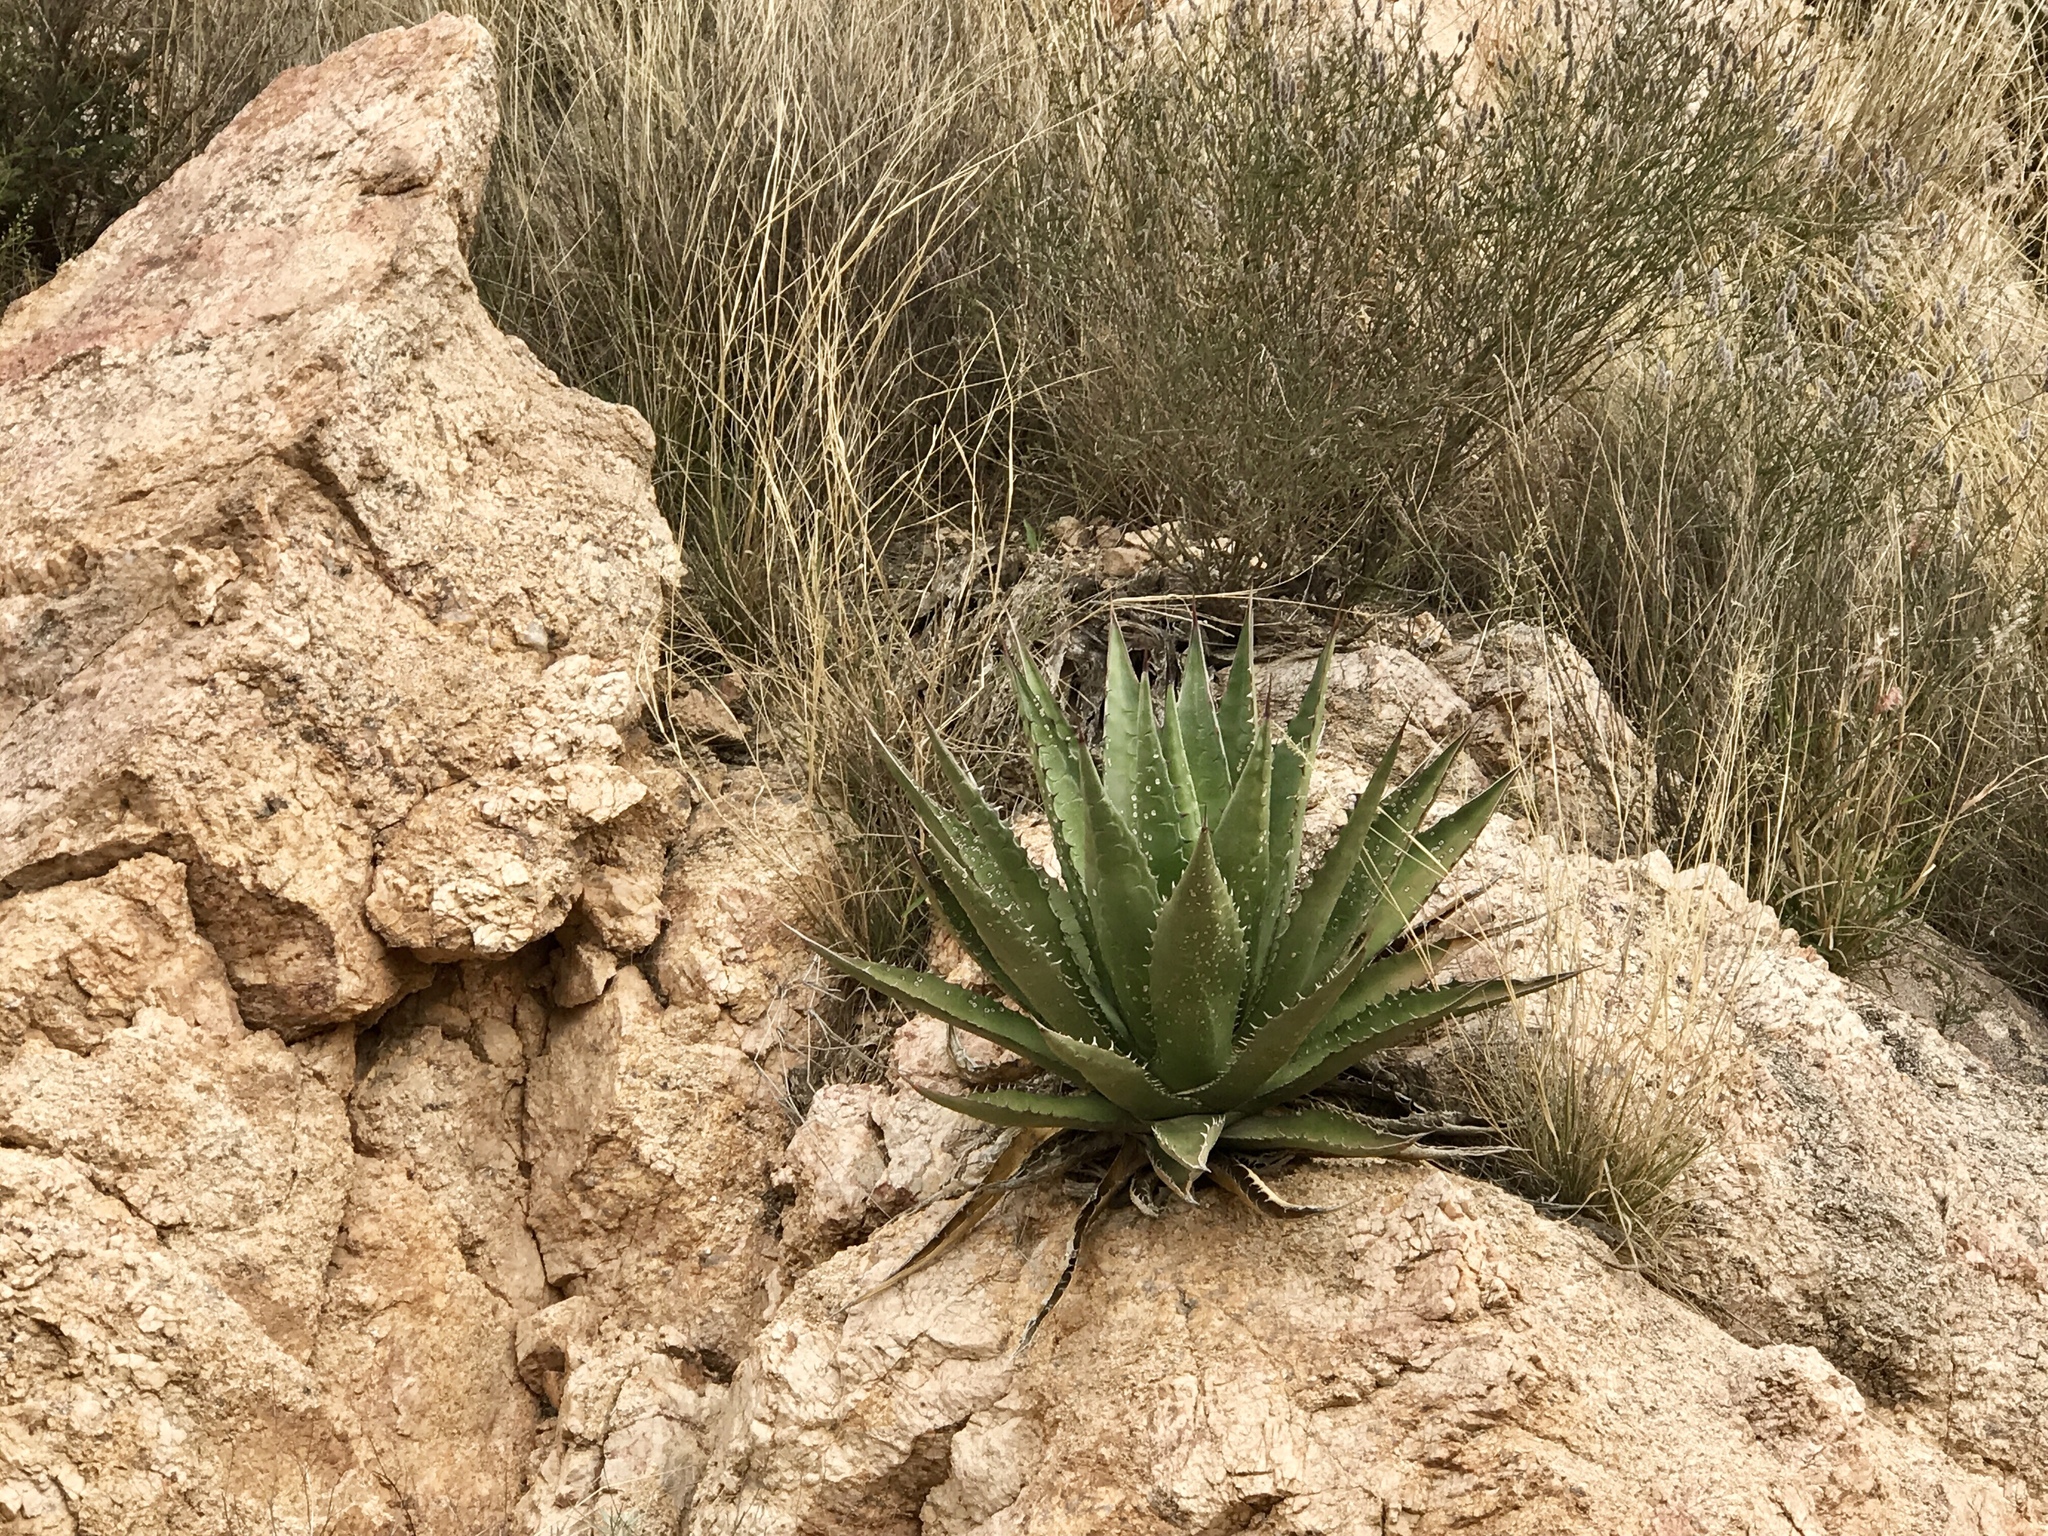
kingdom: Plantae
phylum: Tracheophyta
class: Liliopsida
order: Asparagales
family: Asparagaceae
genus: Agave
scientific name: Agave palmeri
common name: Palmer agave
